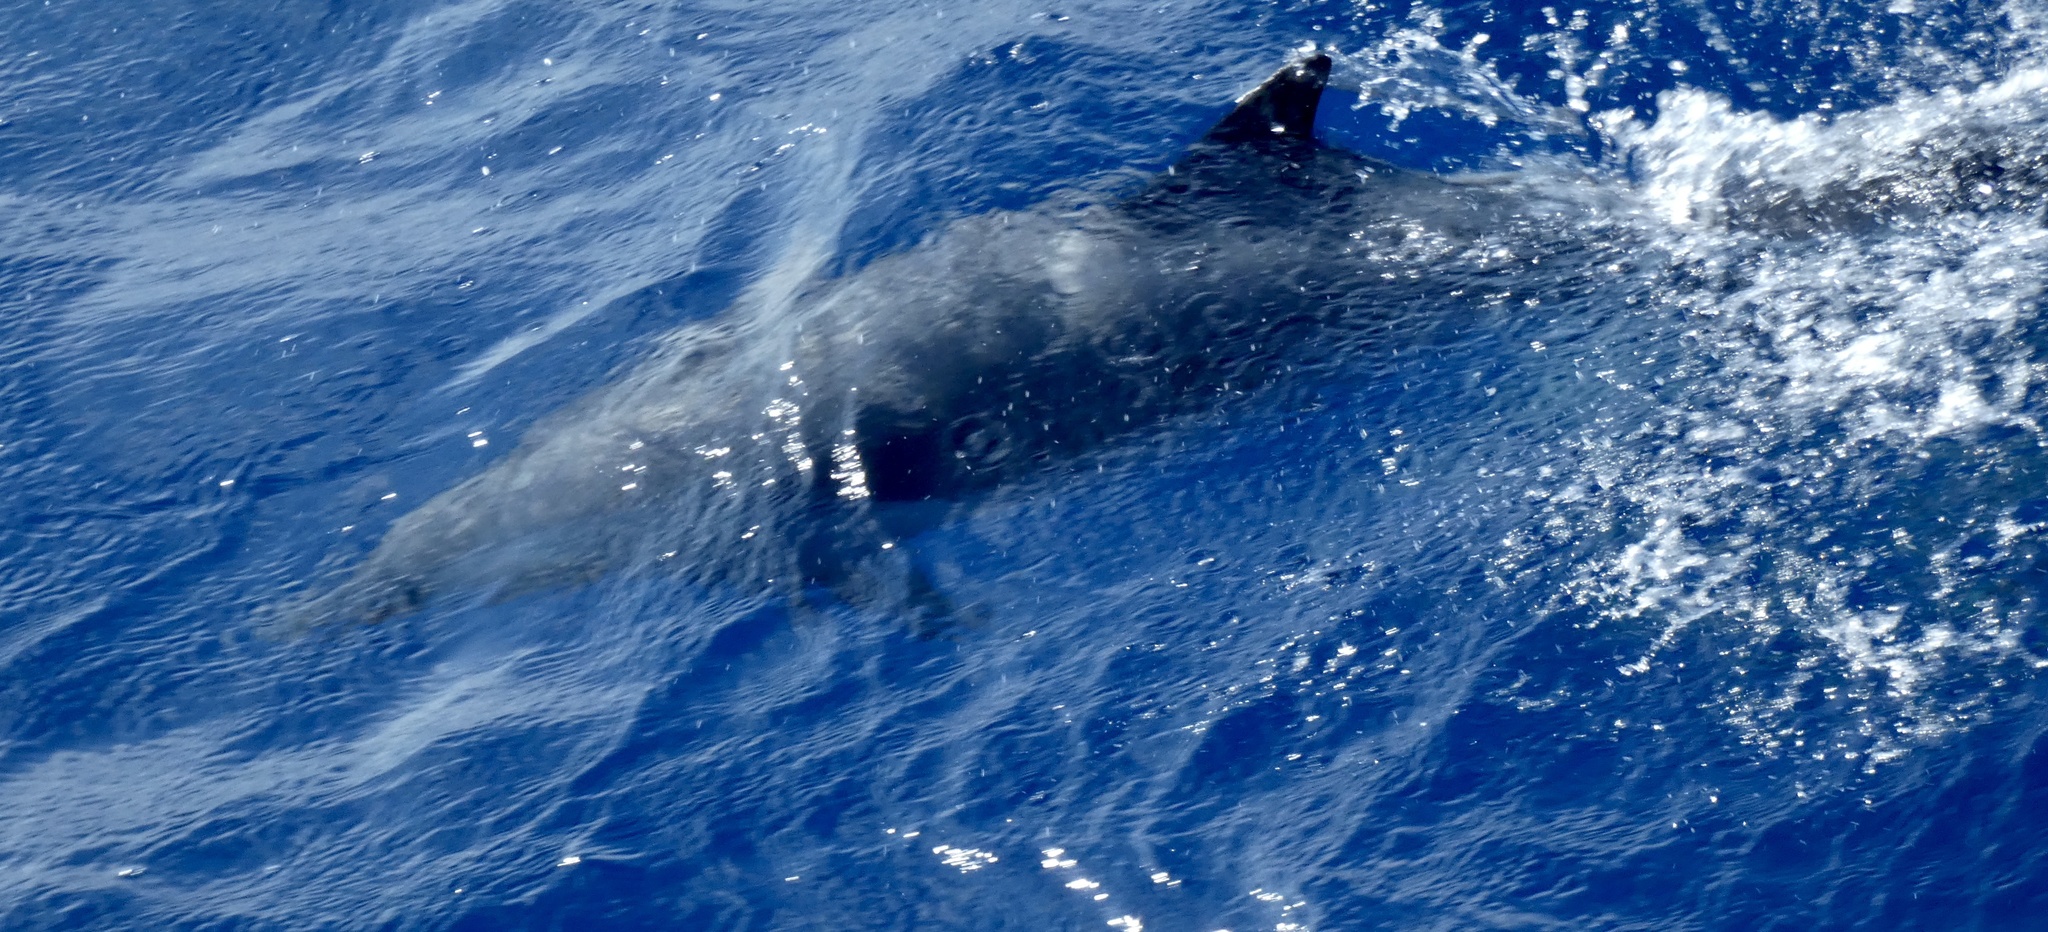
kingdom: Animalia
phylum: Chordata
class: Mammalia
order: Cetacea
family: Delphinidae
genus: Stenella
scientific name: Stenella attenuata
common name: Pantropical spotted dolphin
